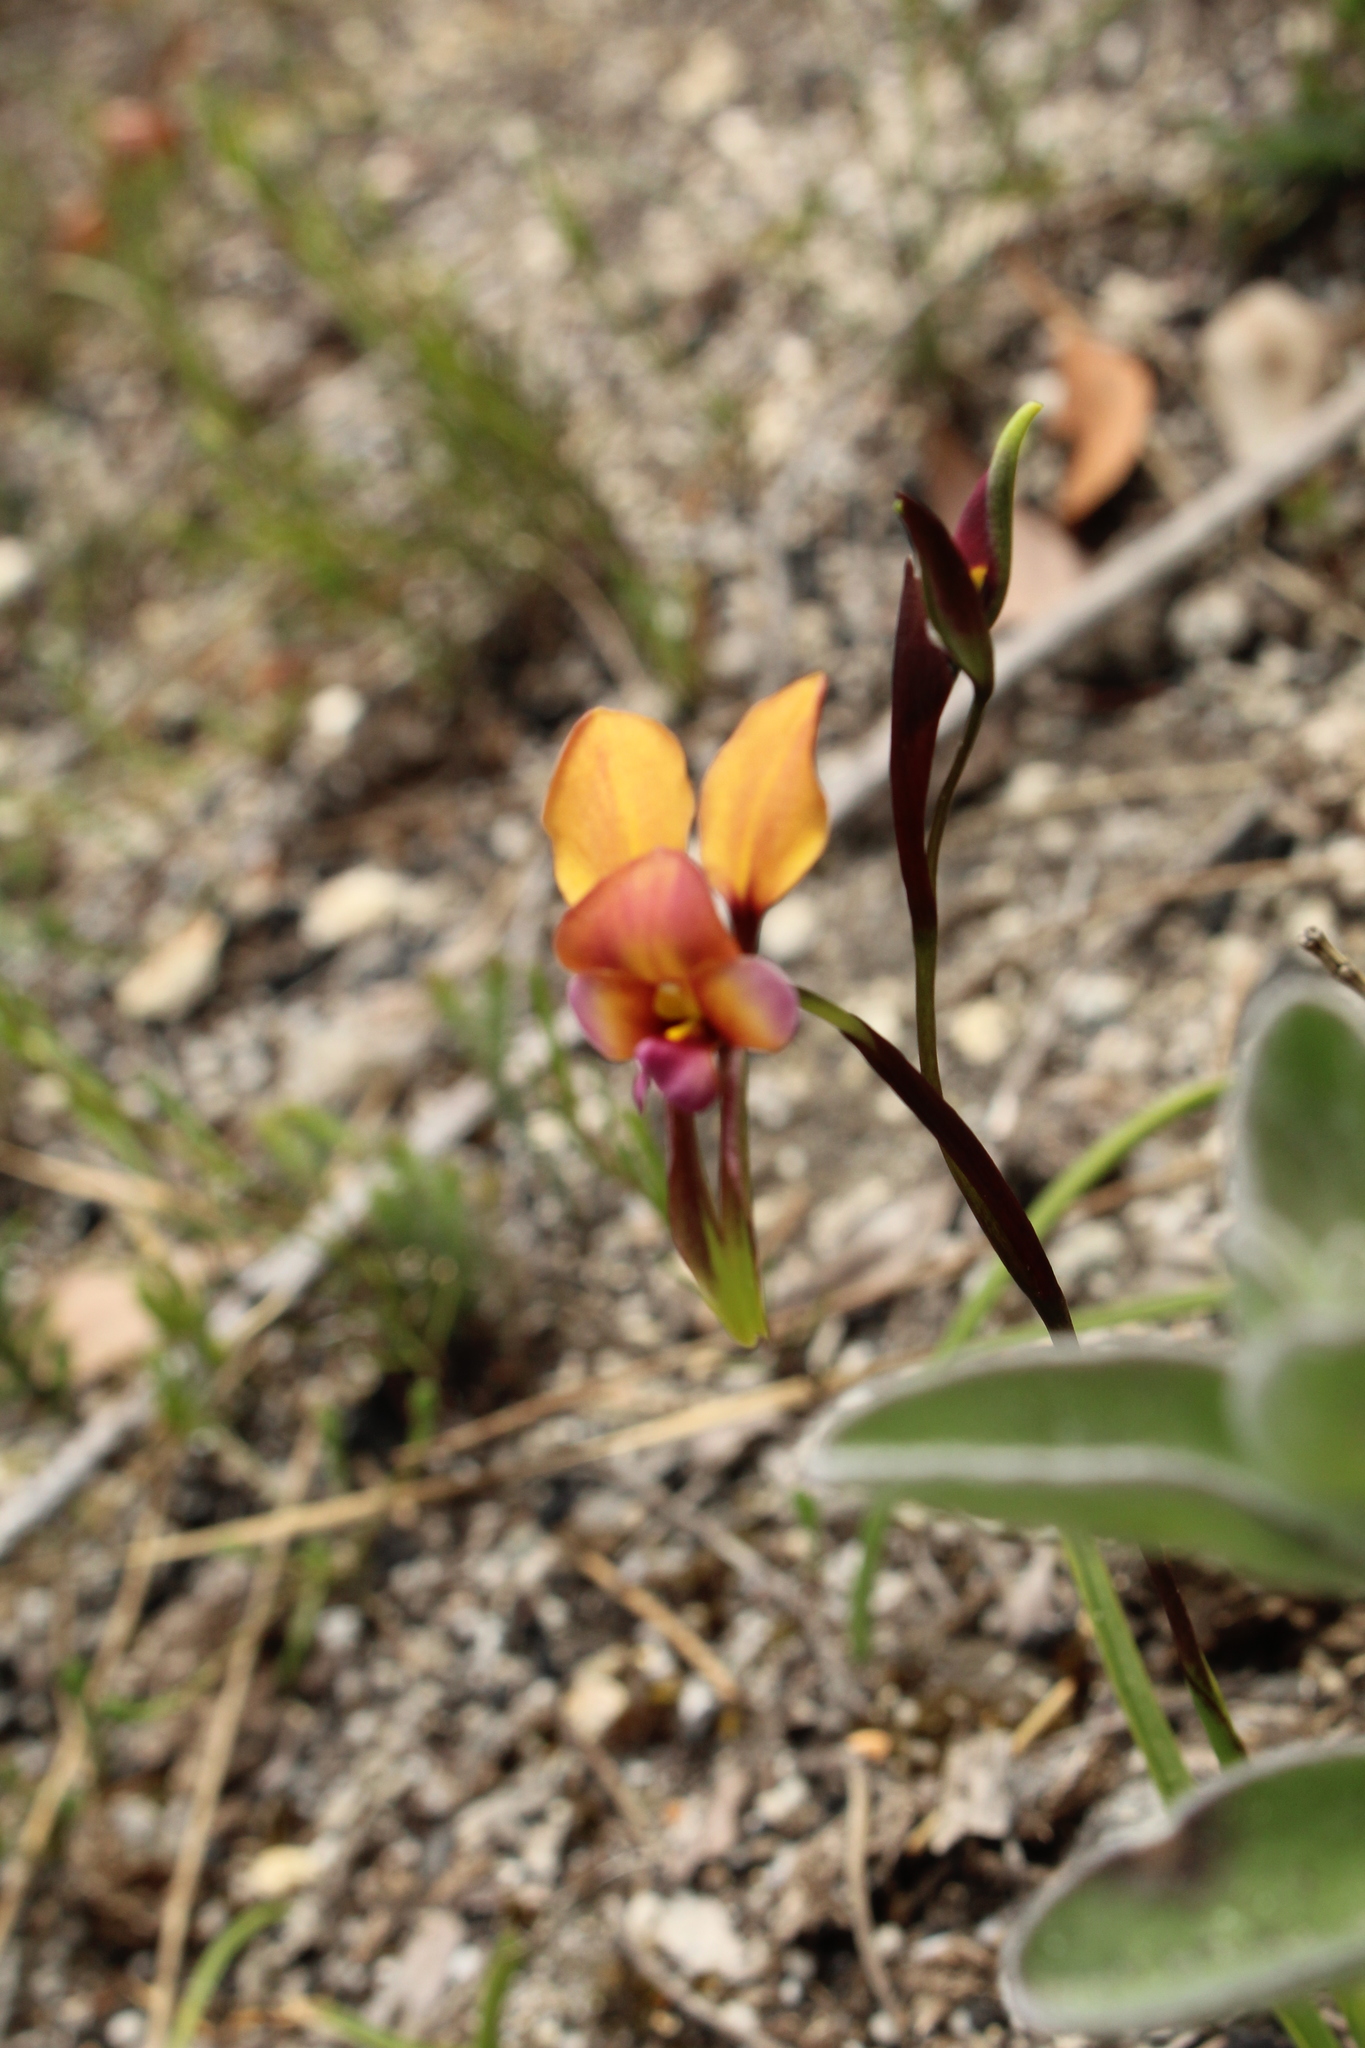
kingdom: Plantae
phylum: Tracheophyta
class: Liliopsida
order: Asparagales
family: Orchidaceae
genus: Diuris
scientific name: Diuris longifolia
